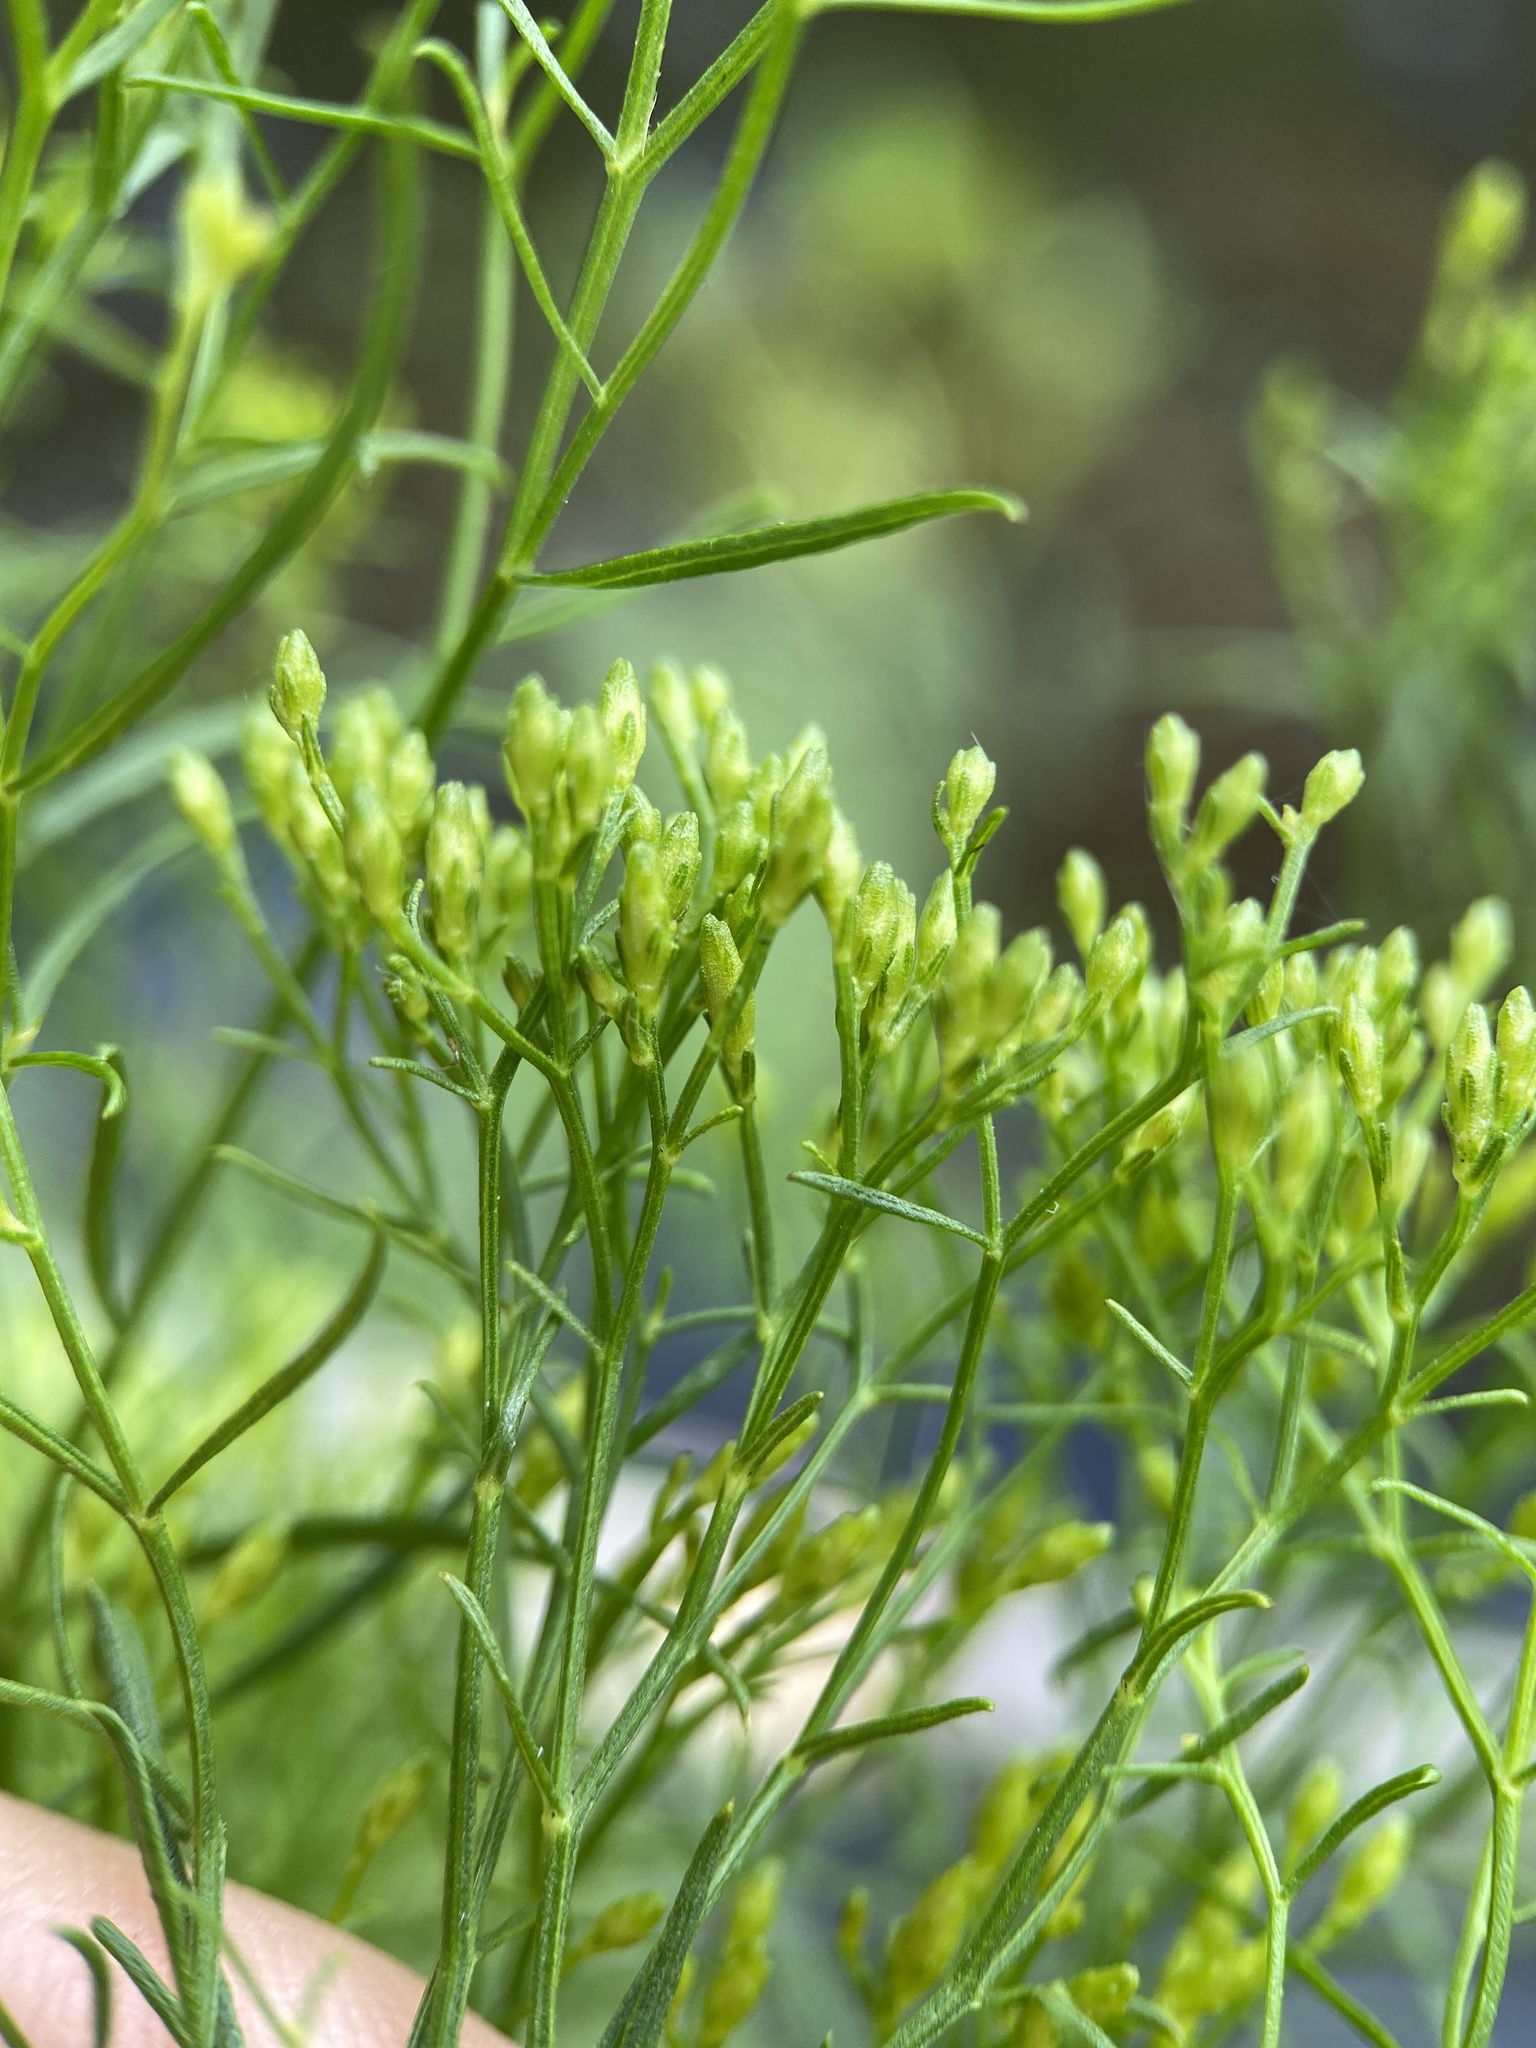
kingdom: Plantae
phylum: Tracheophyta
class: Magnoliopsida
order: Asterales
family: Asteraceae
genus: Euthamia
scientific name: Euthamia caroliniana
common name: Coastal plain goldentop
